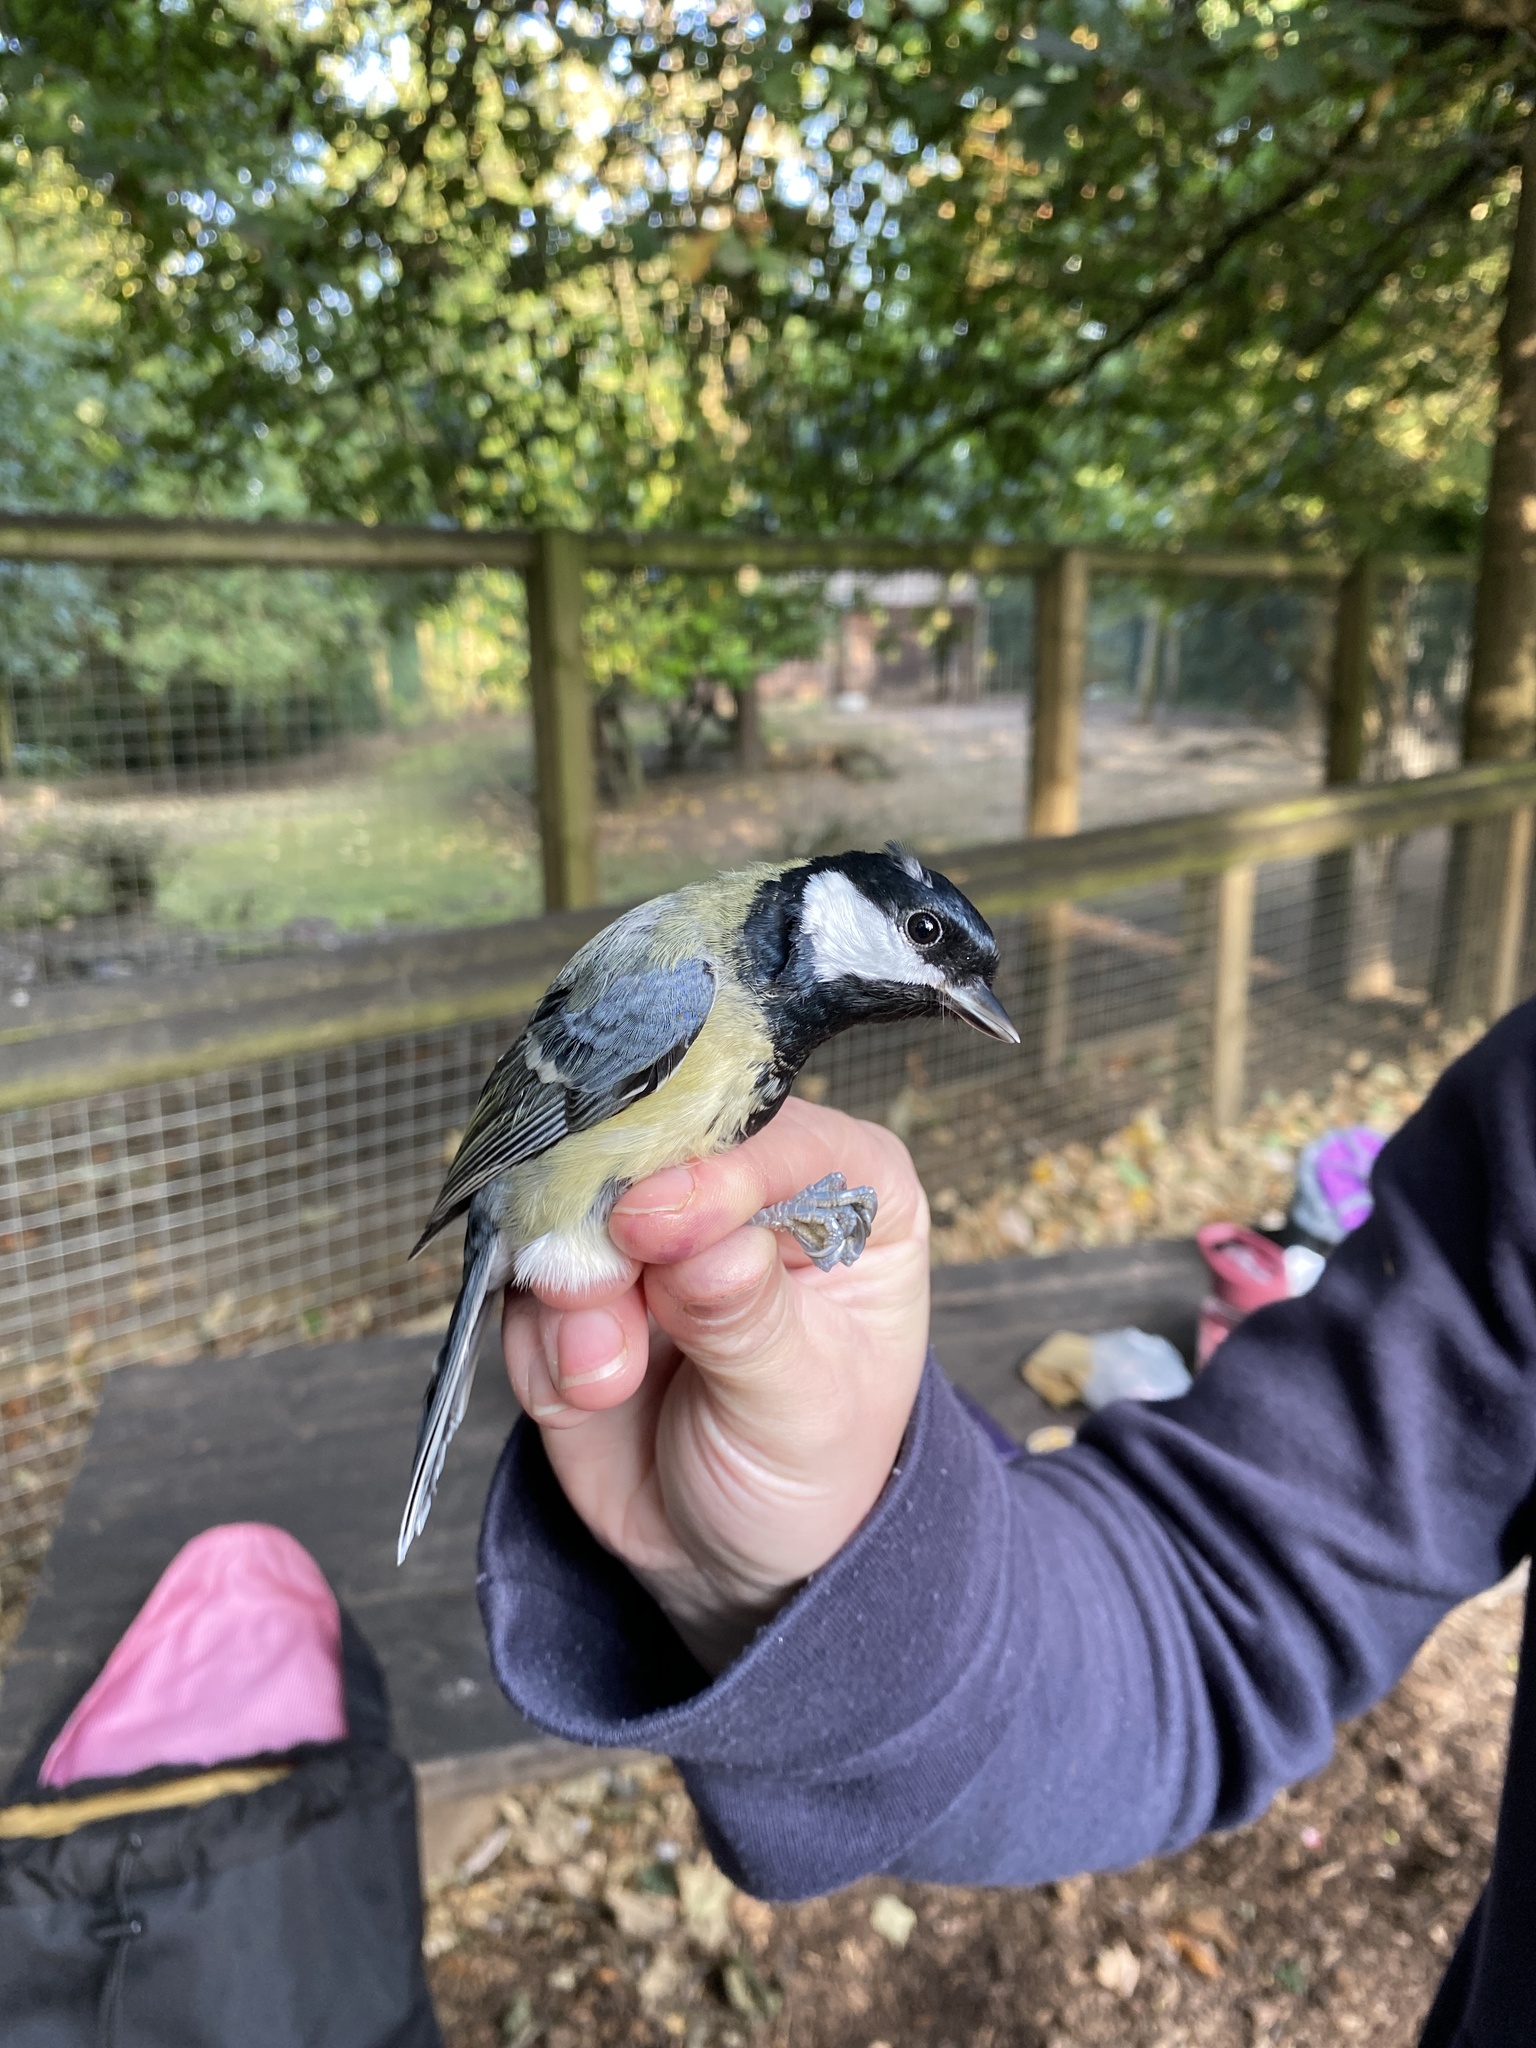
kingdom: Animalia
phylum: Chordata
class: Aves
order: Passeriformes
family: Paridae
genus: Parus
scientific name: Parus major
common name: Great tit
